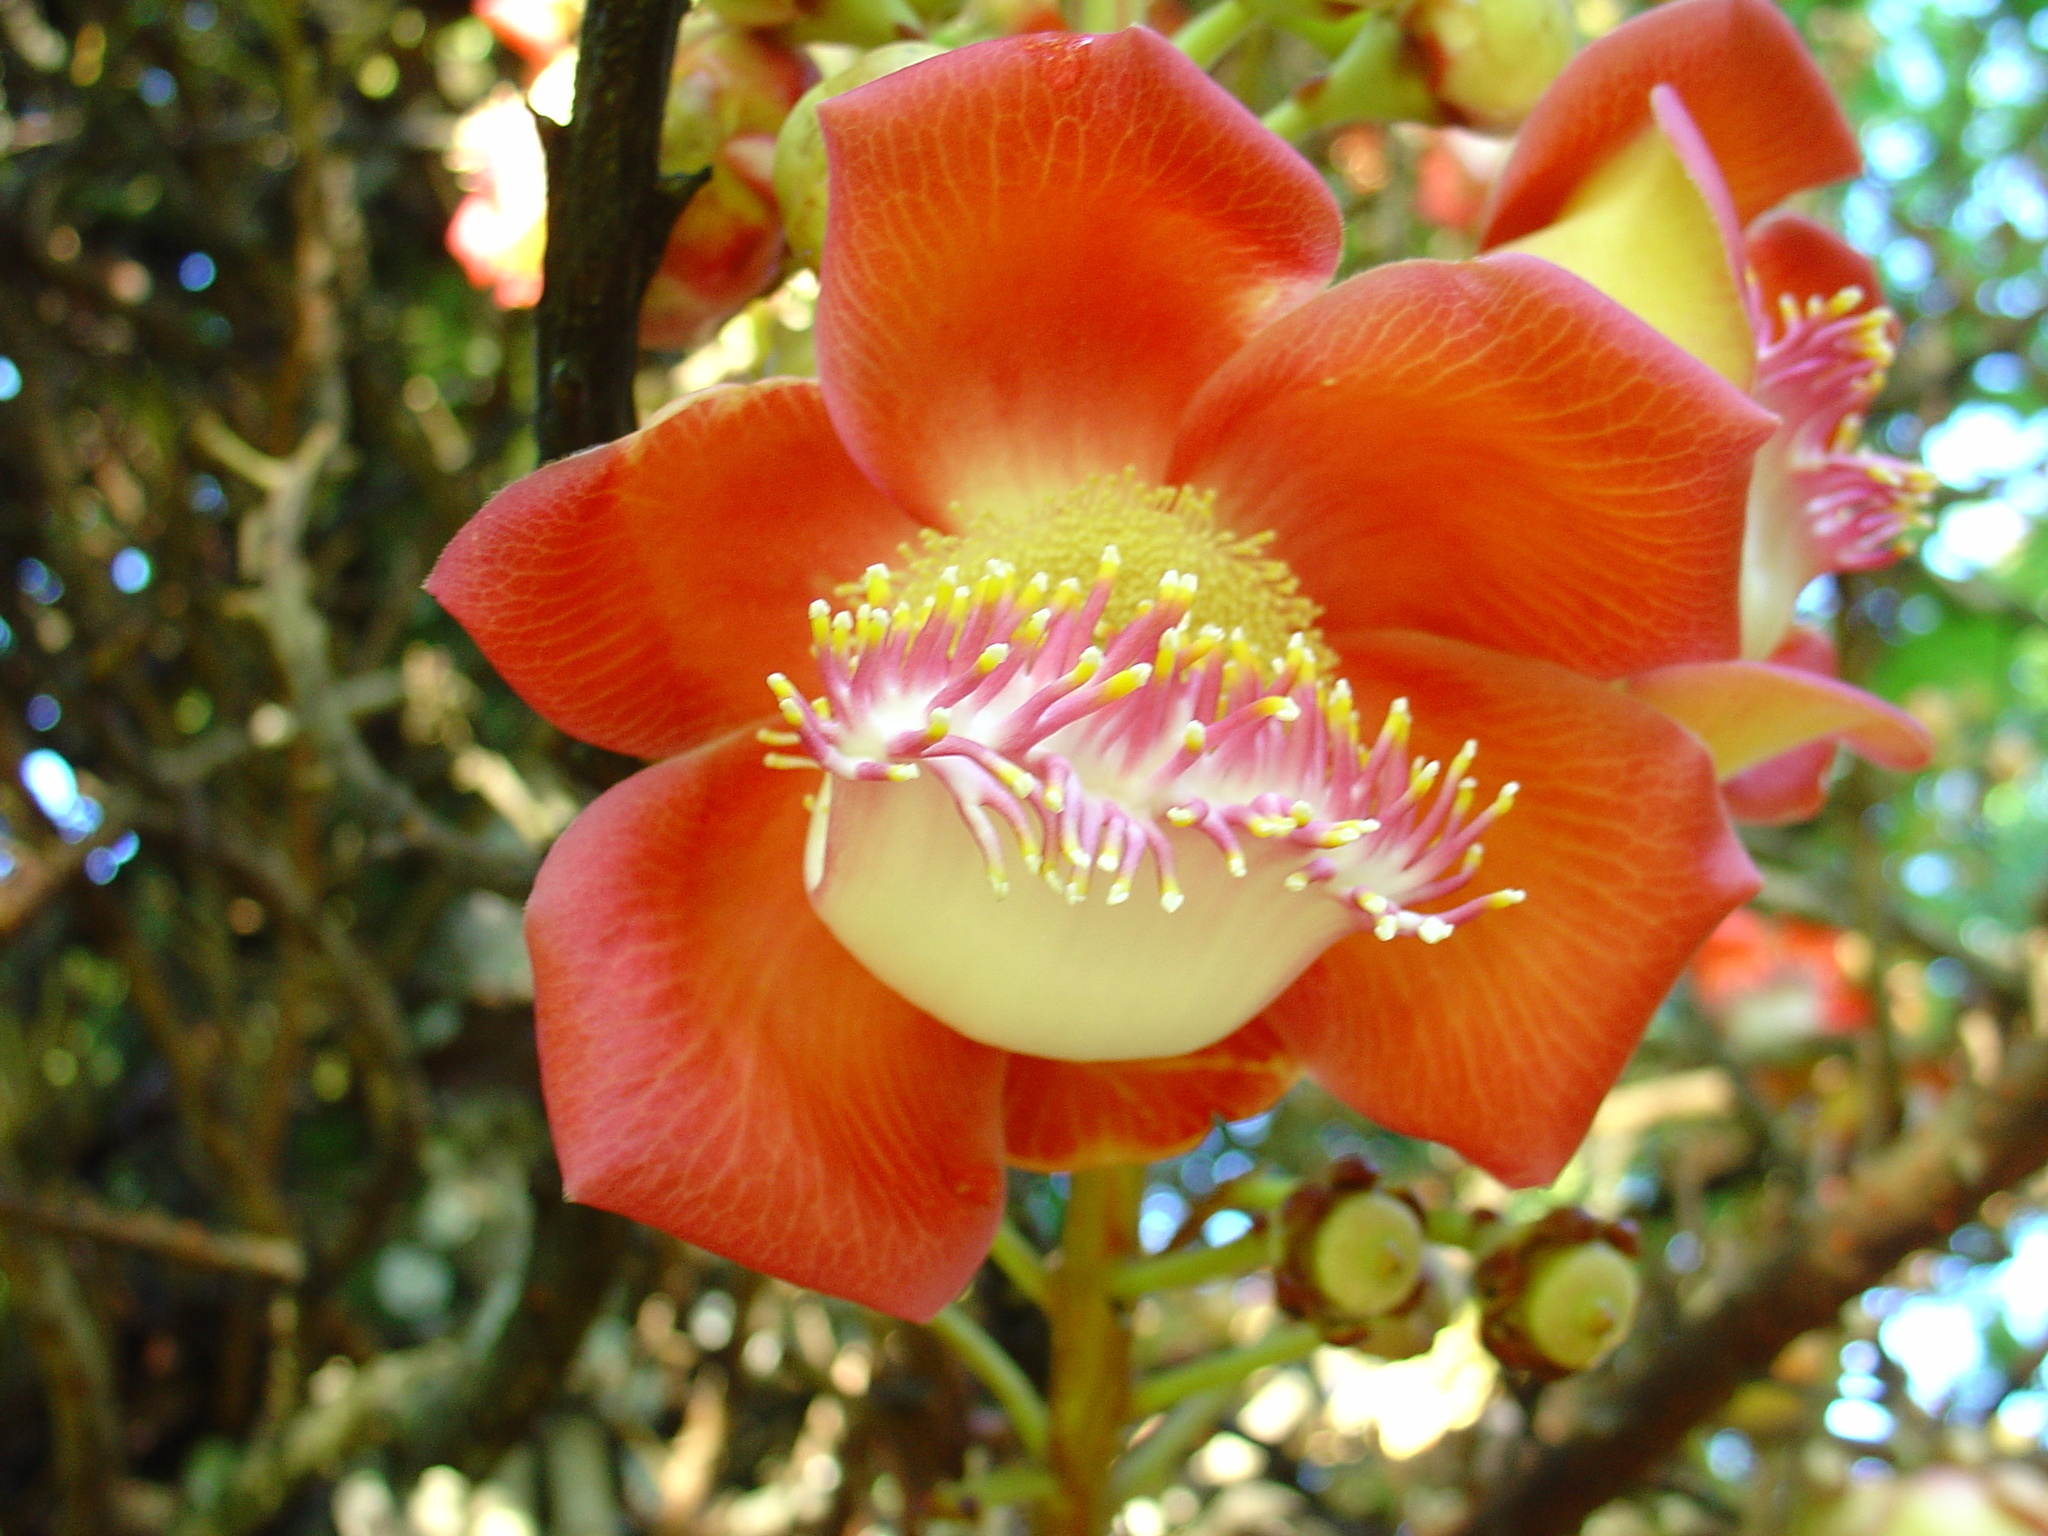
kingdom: Plantae
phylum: Tracheophyta
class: Magnoliopsida
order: Ericales
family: Lecythidaceae
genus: Couroupita
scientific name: Couroupita guianensis
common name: Cannonball tree
